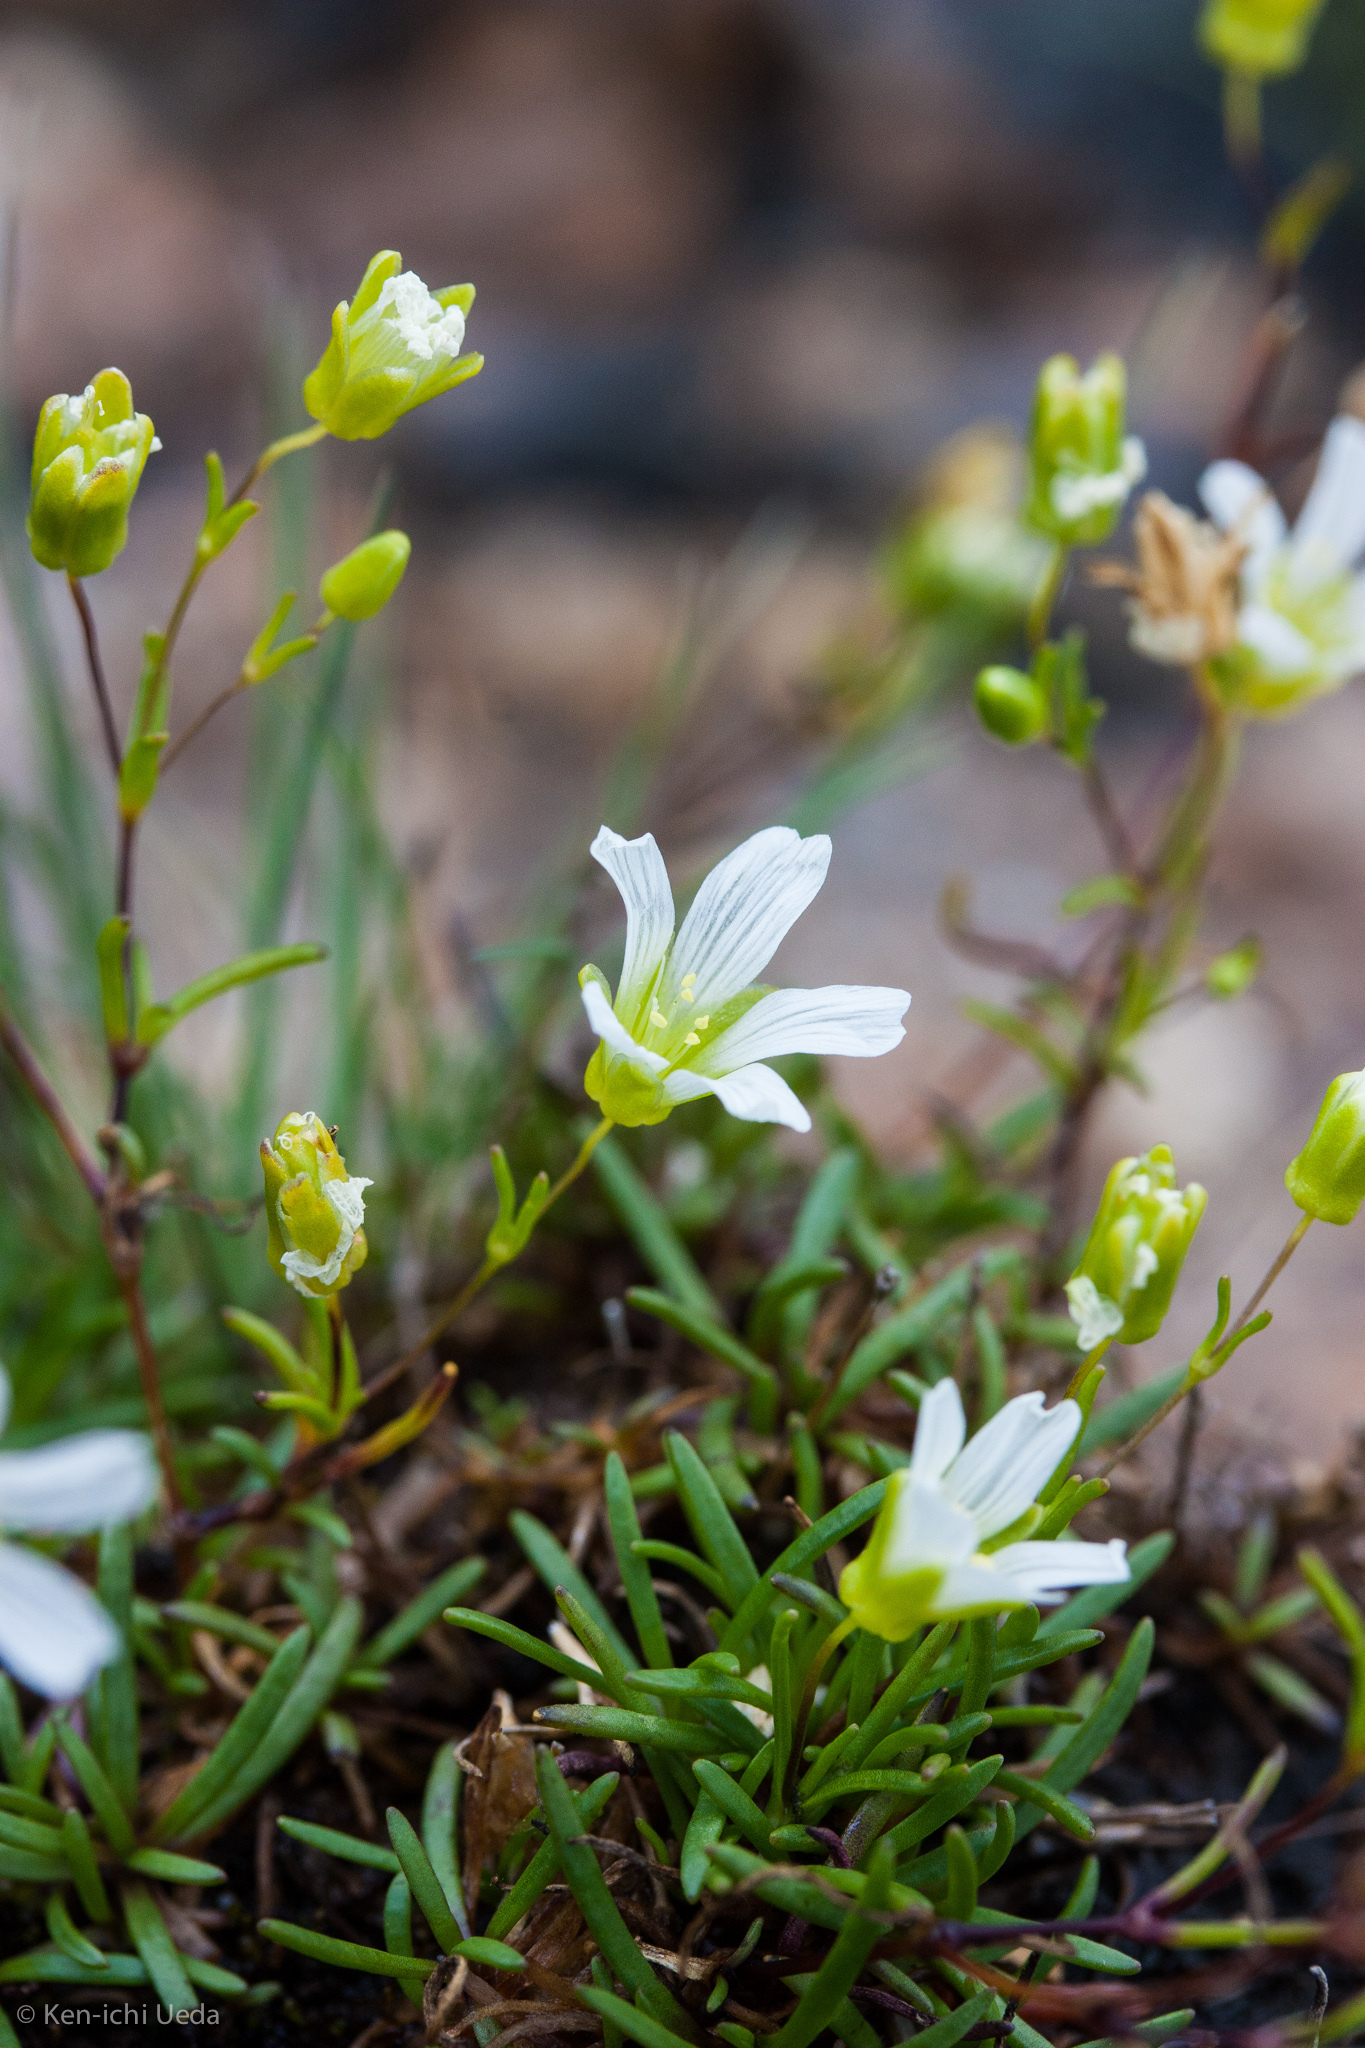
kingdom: Plantae
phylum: Tracheophyta
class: Magnoliopsida
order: Caryophyllales
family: Caryophyllaceae
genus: Geocarpon
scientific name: Geocarpon groenlandicum
